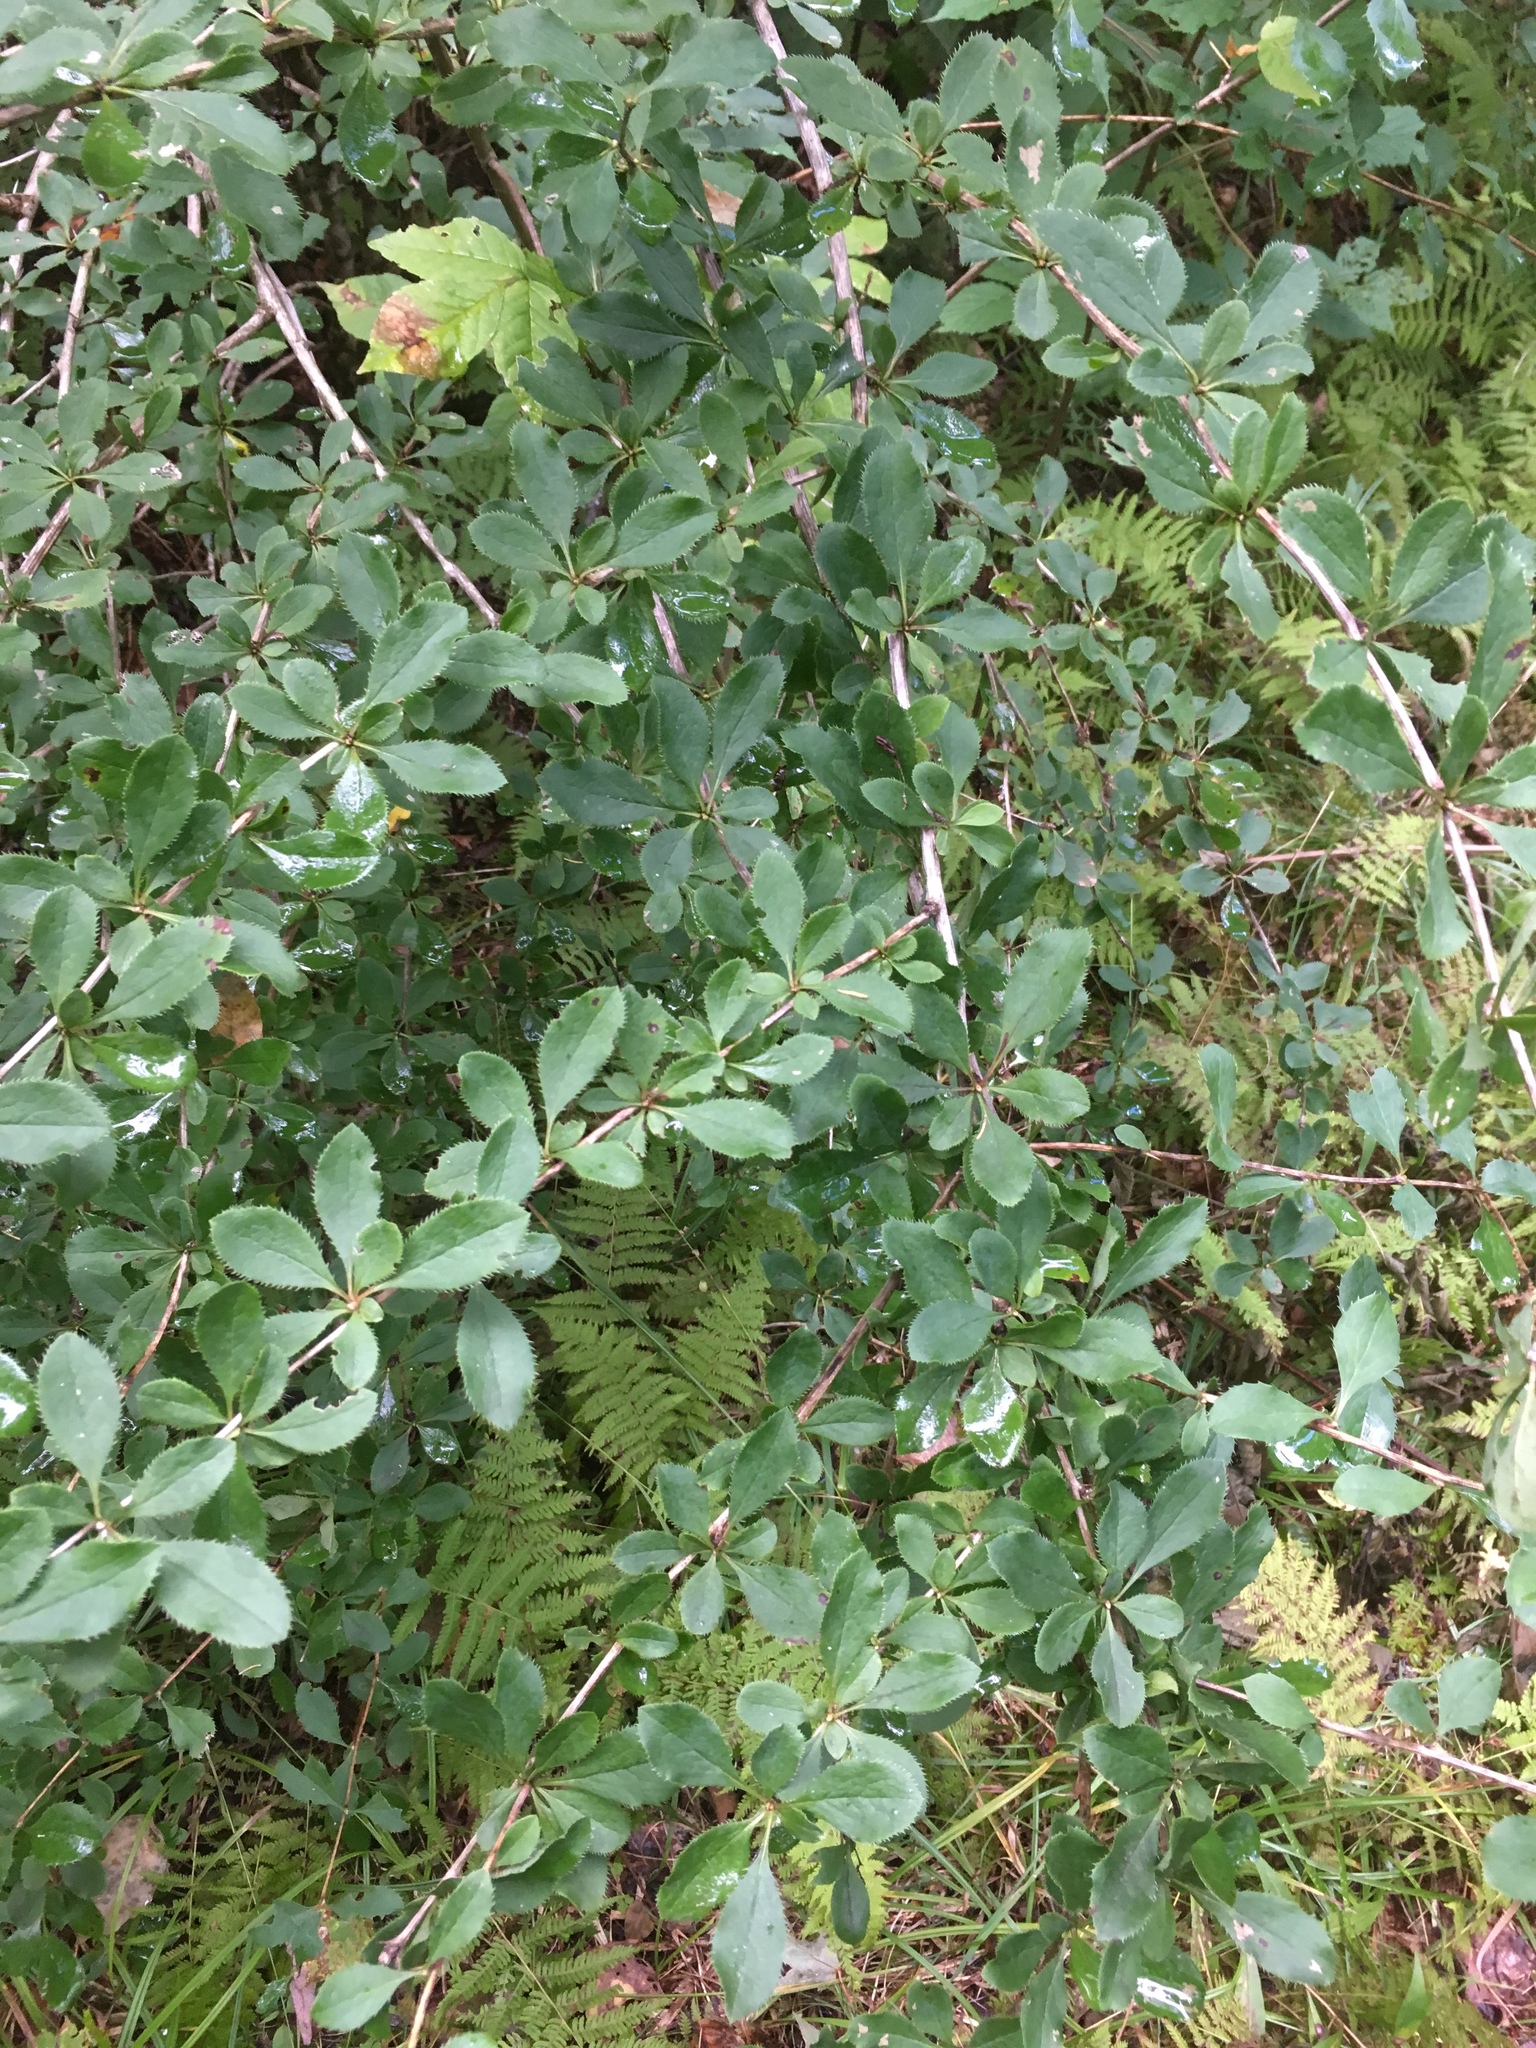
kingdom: Plantae
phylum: Tracheophyta
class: Magnoliopsida
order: Ranunculales
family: Berberidaceae
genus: Berberis
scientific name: Berberis vulgaris
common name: Barberry
